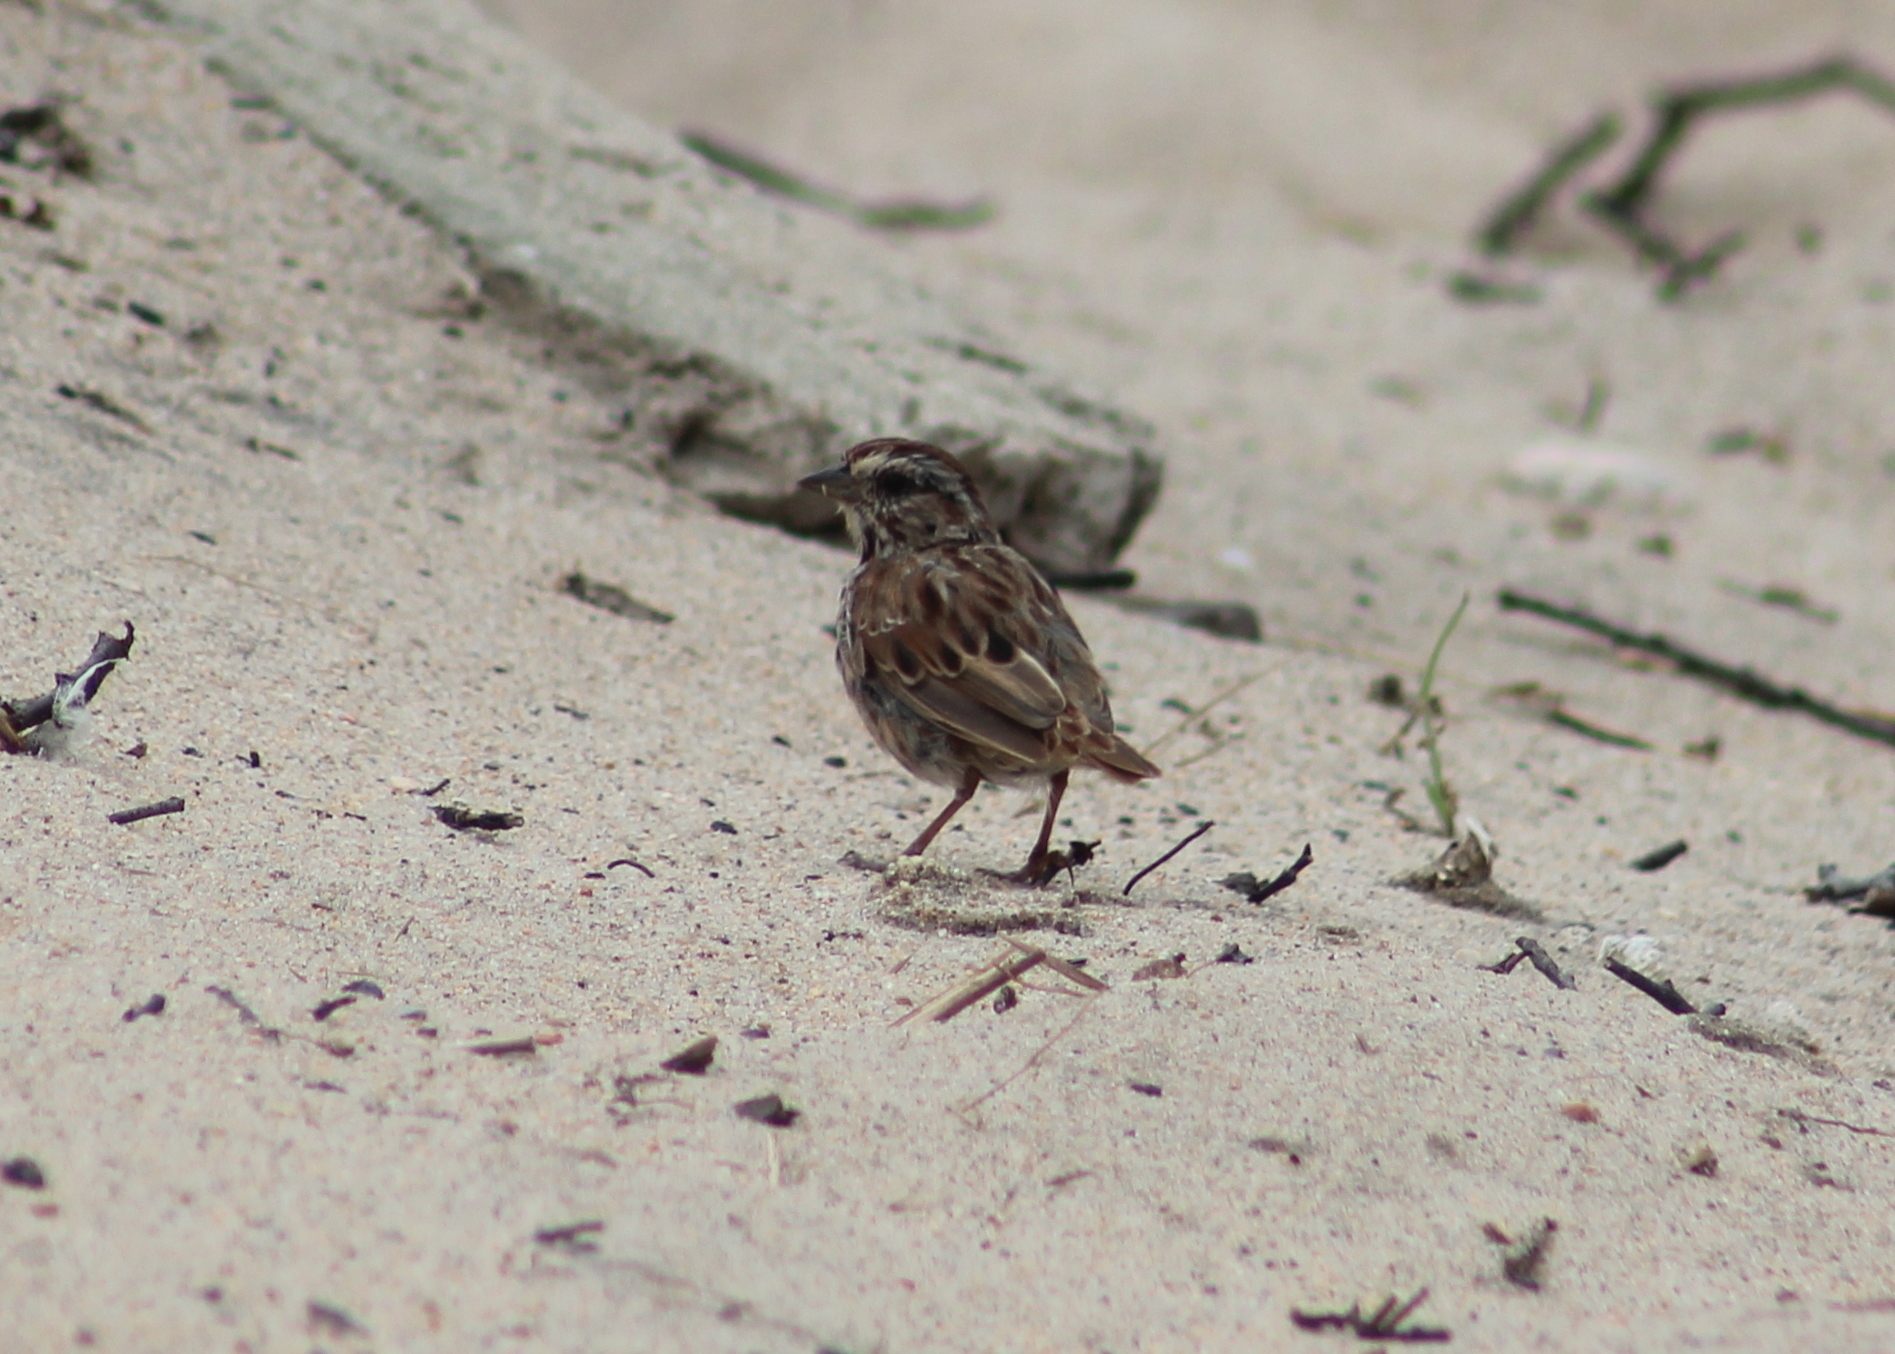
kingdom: Animalia
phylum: Chordata
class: Aves
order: Passeriformes
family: Passerellidae
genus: Melospiza
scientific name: Melospiza melodia
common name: Song sparrow
